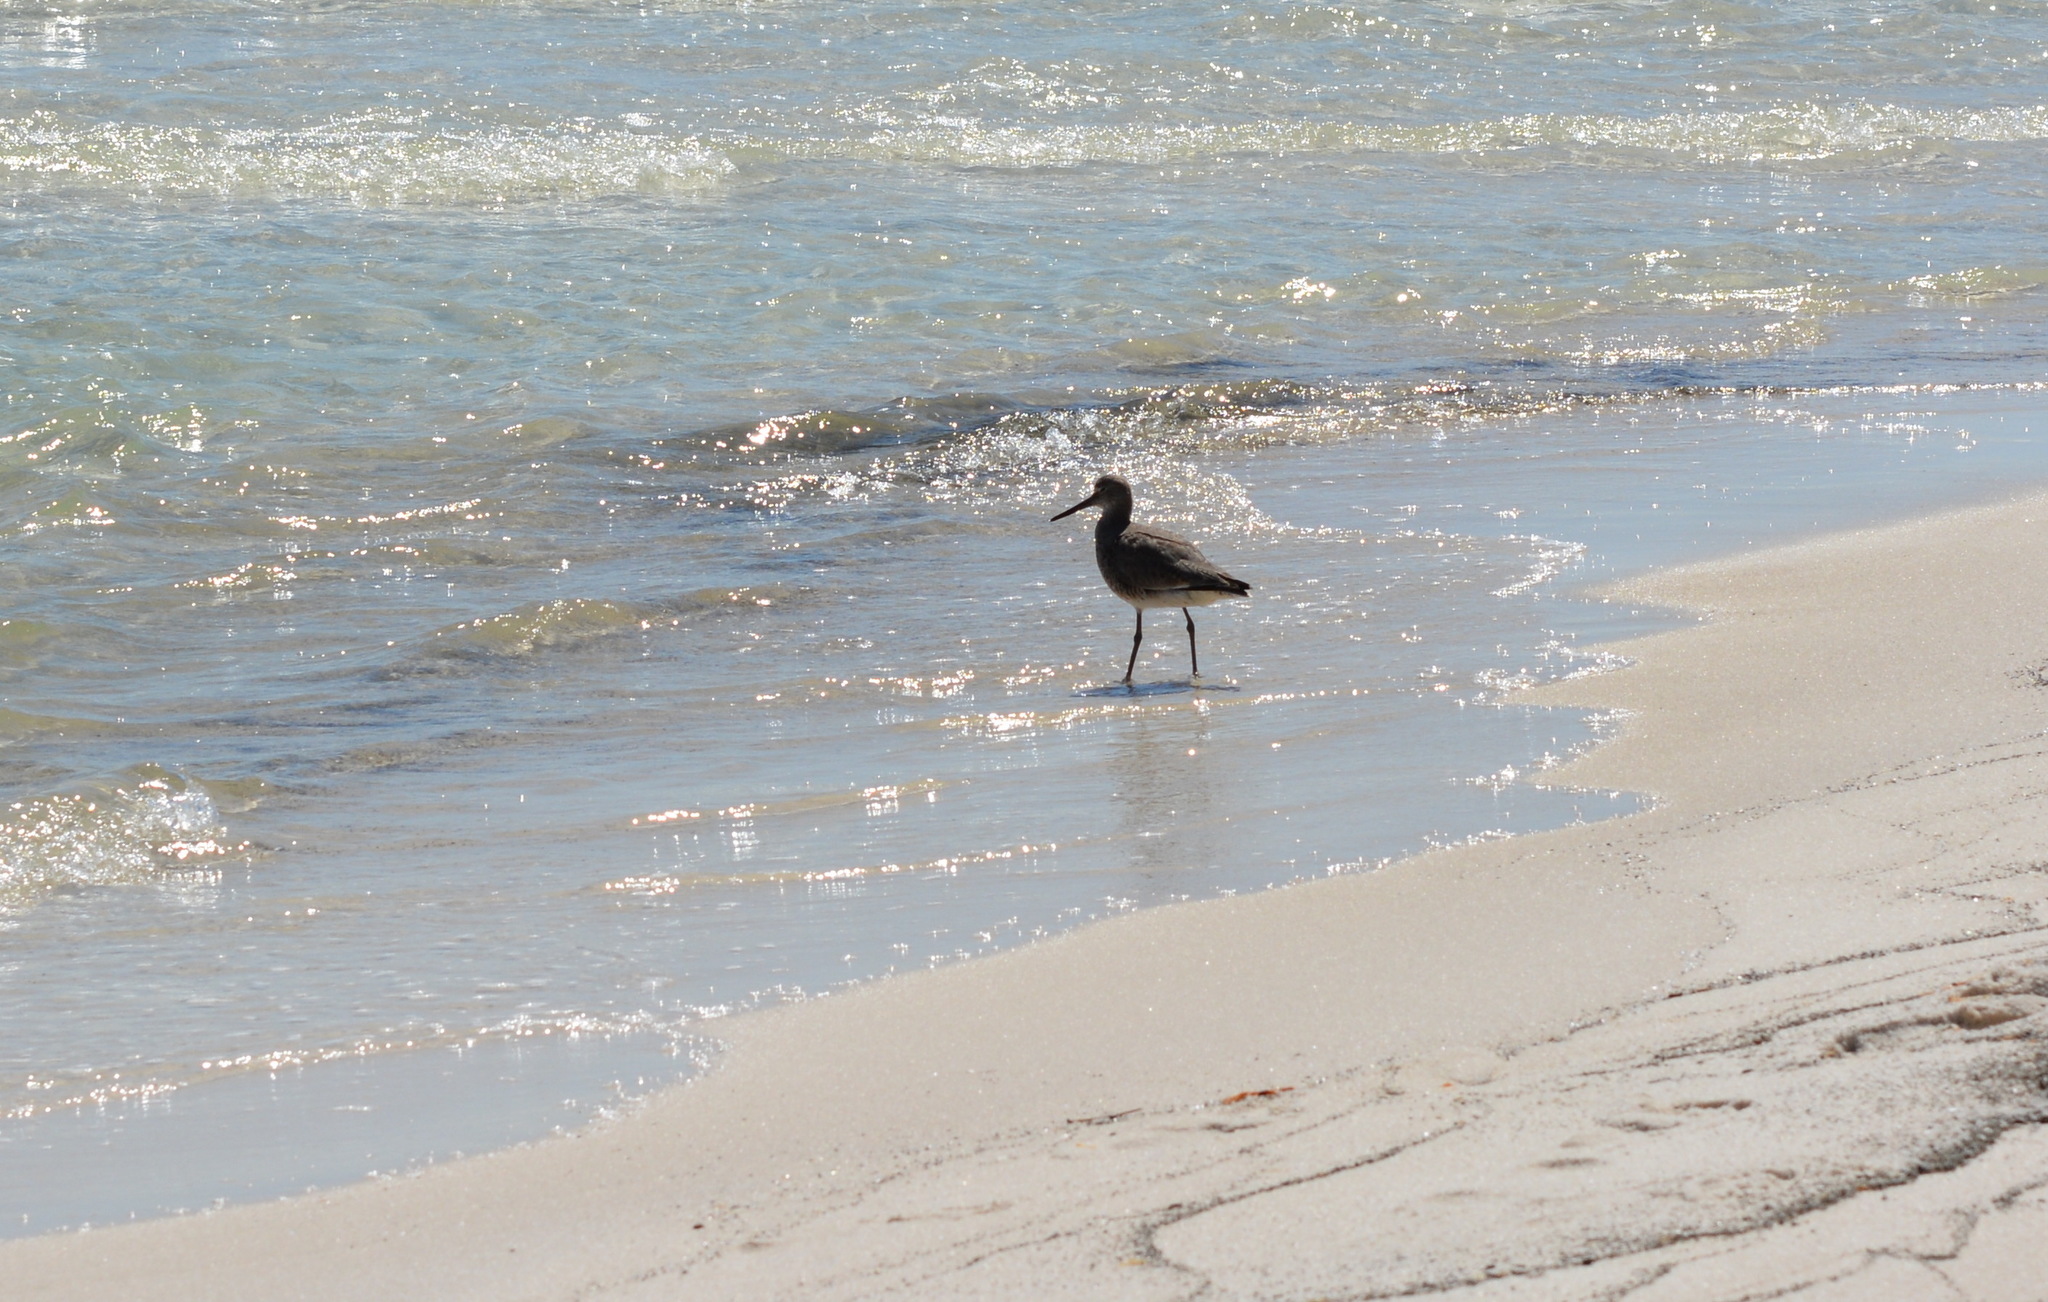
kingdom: Animalia
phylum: Chordata
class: Aves
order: Charadriiformes
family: Scolopacidae
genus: Tringa
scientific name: Tringa semipalmata
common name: Willet
